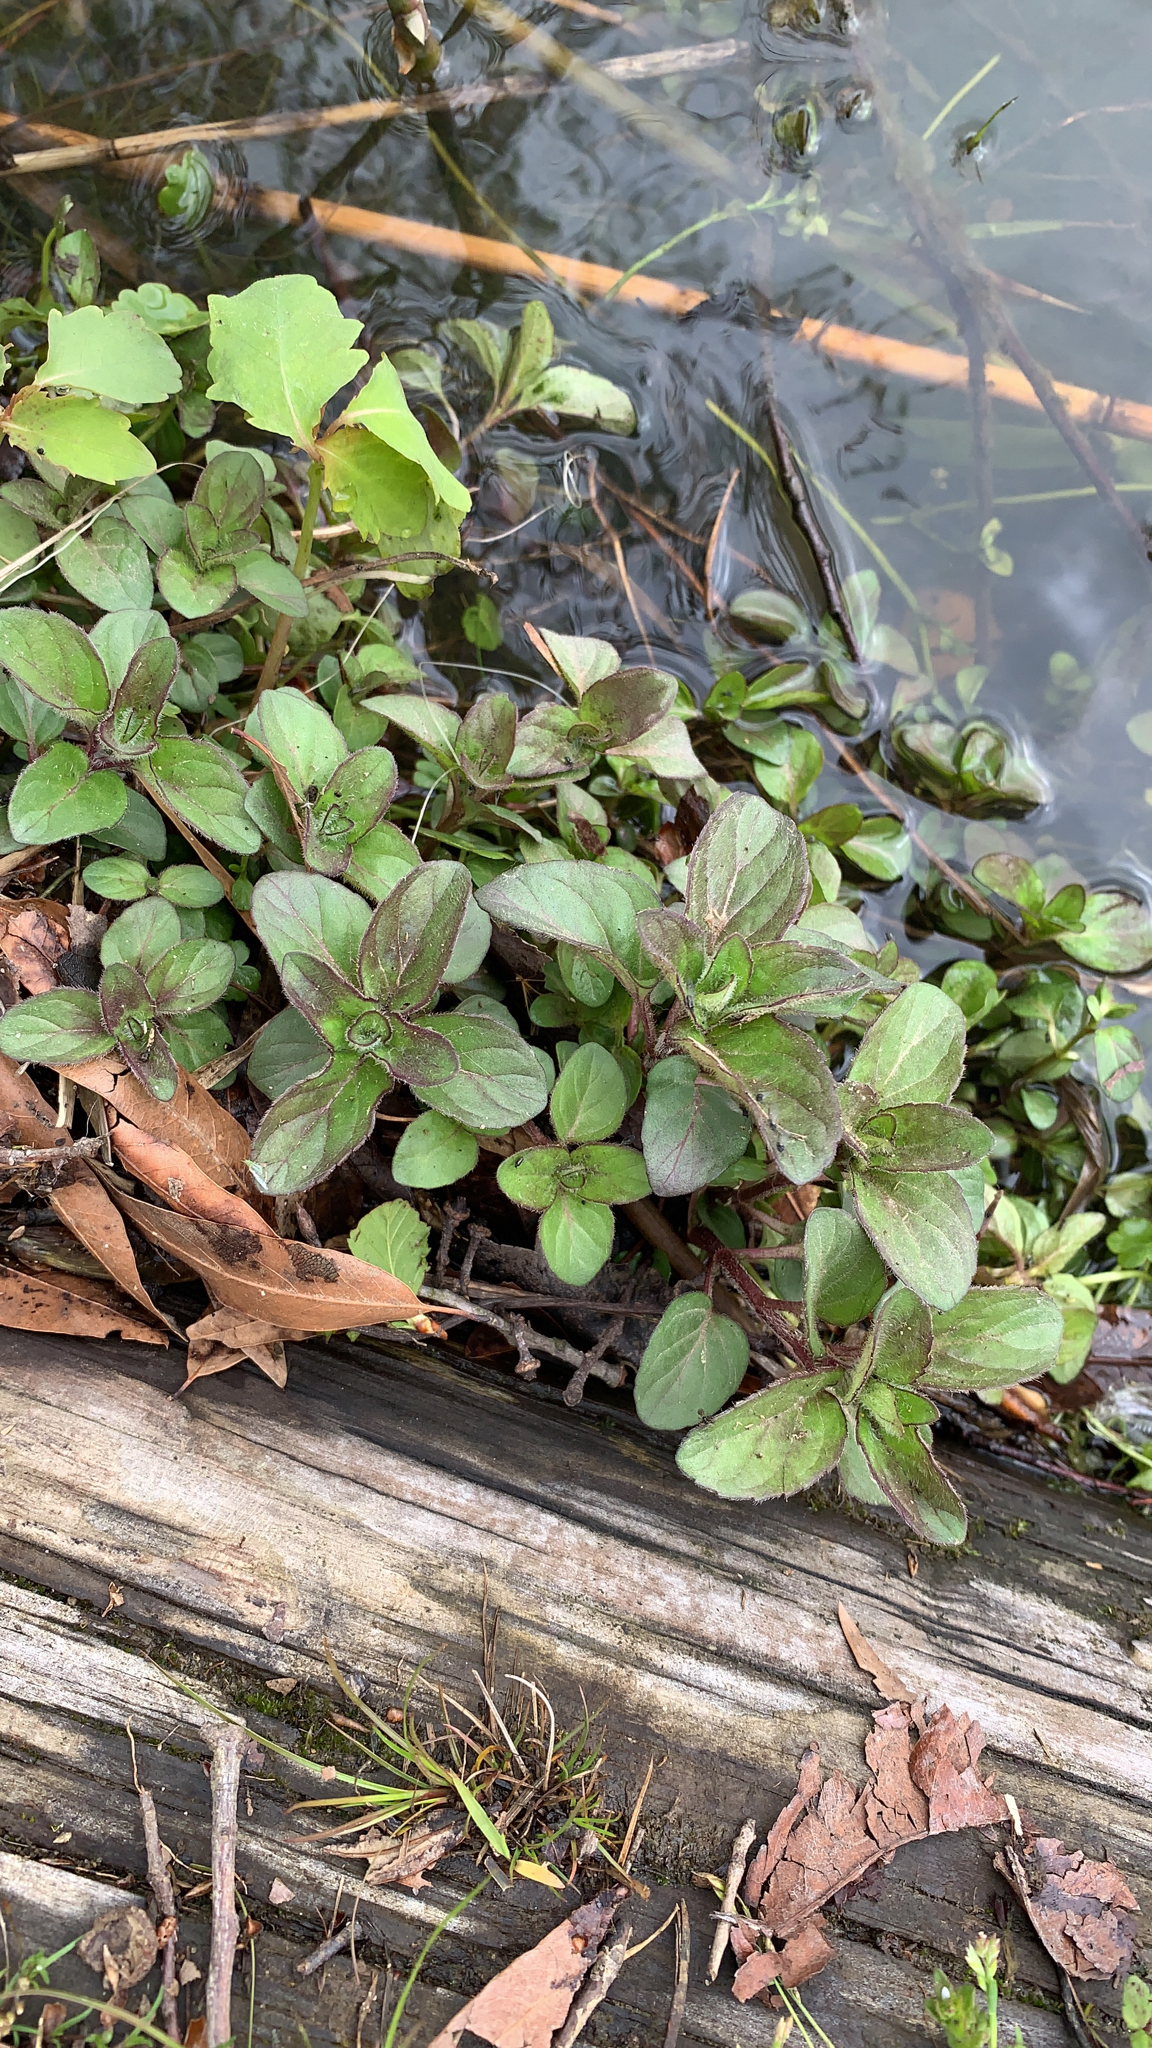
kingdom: Plantae
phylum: Tracheophyta
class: Magnoliopsida
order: Myrtales
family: Onagraceae
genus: Ludwigia
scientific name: Ludwigia palustris
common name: Hampshire-purslane
